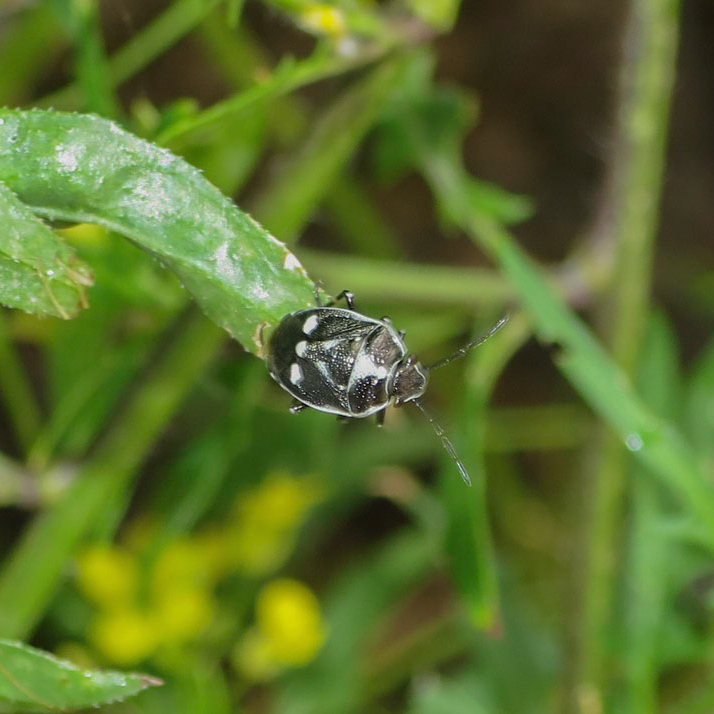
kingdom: Animalia
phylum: Arthropoda
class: Insecta
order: Hemiptera
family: Pentatomidae
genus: Eurydema
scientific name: Eurydema oleracea
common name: Cabbage bug
